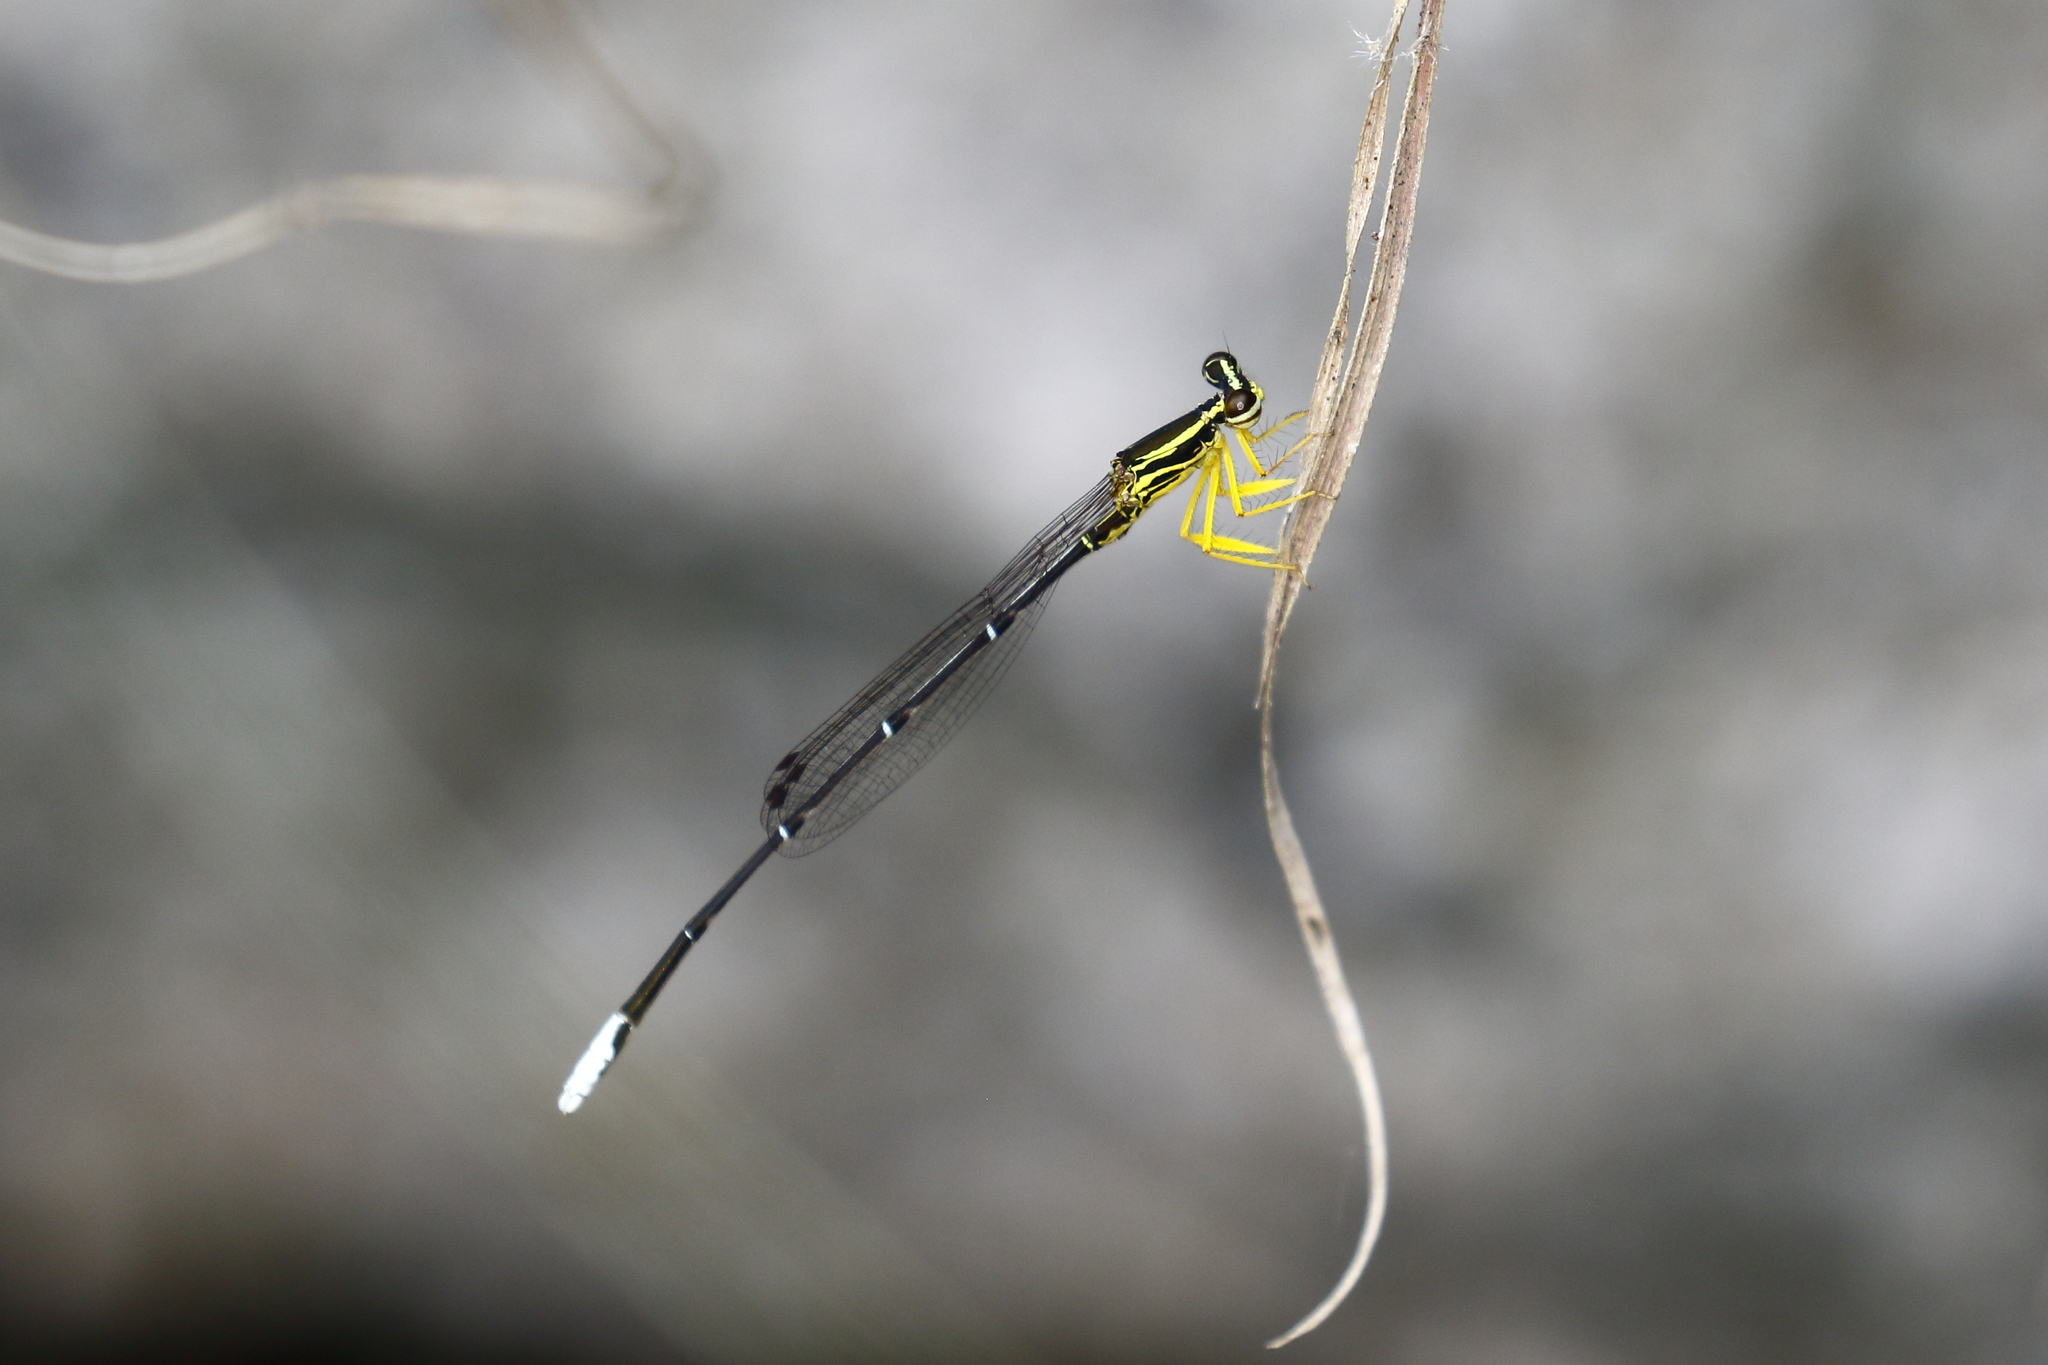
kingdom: Animalia
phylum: Arthropoda
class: Insecta
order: Odonata
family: Platycnemididae
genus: Copera
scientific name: Copera marginipes
